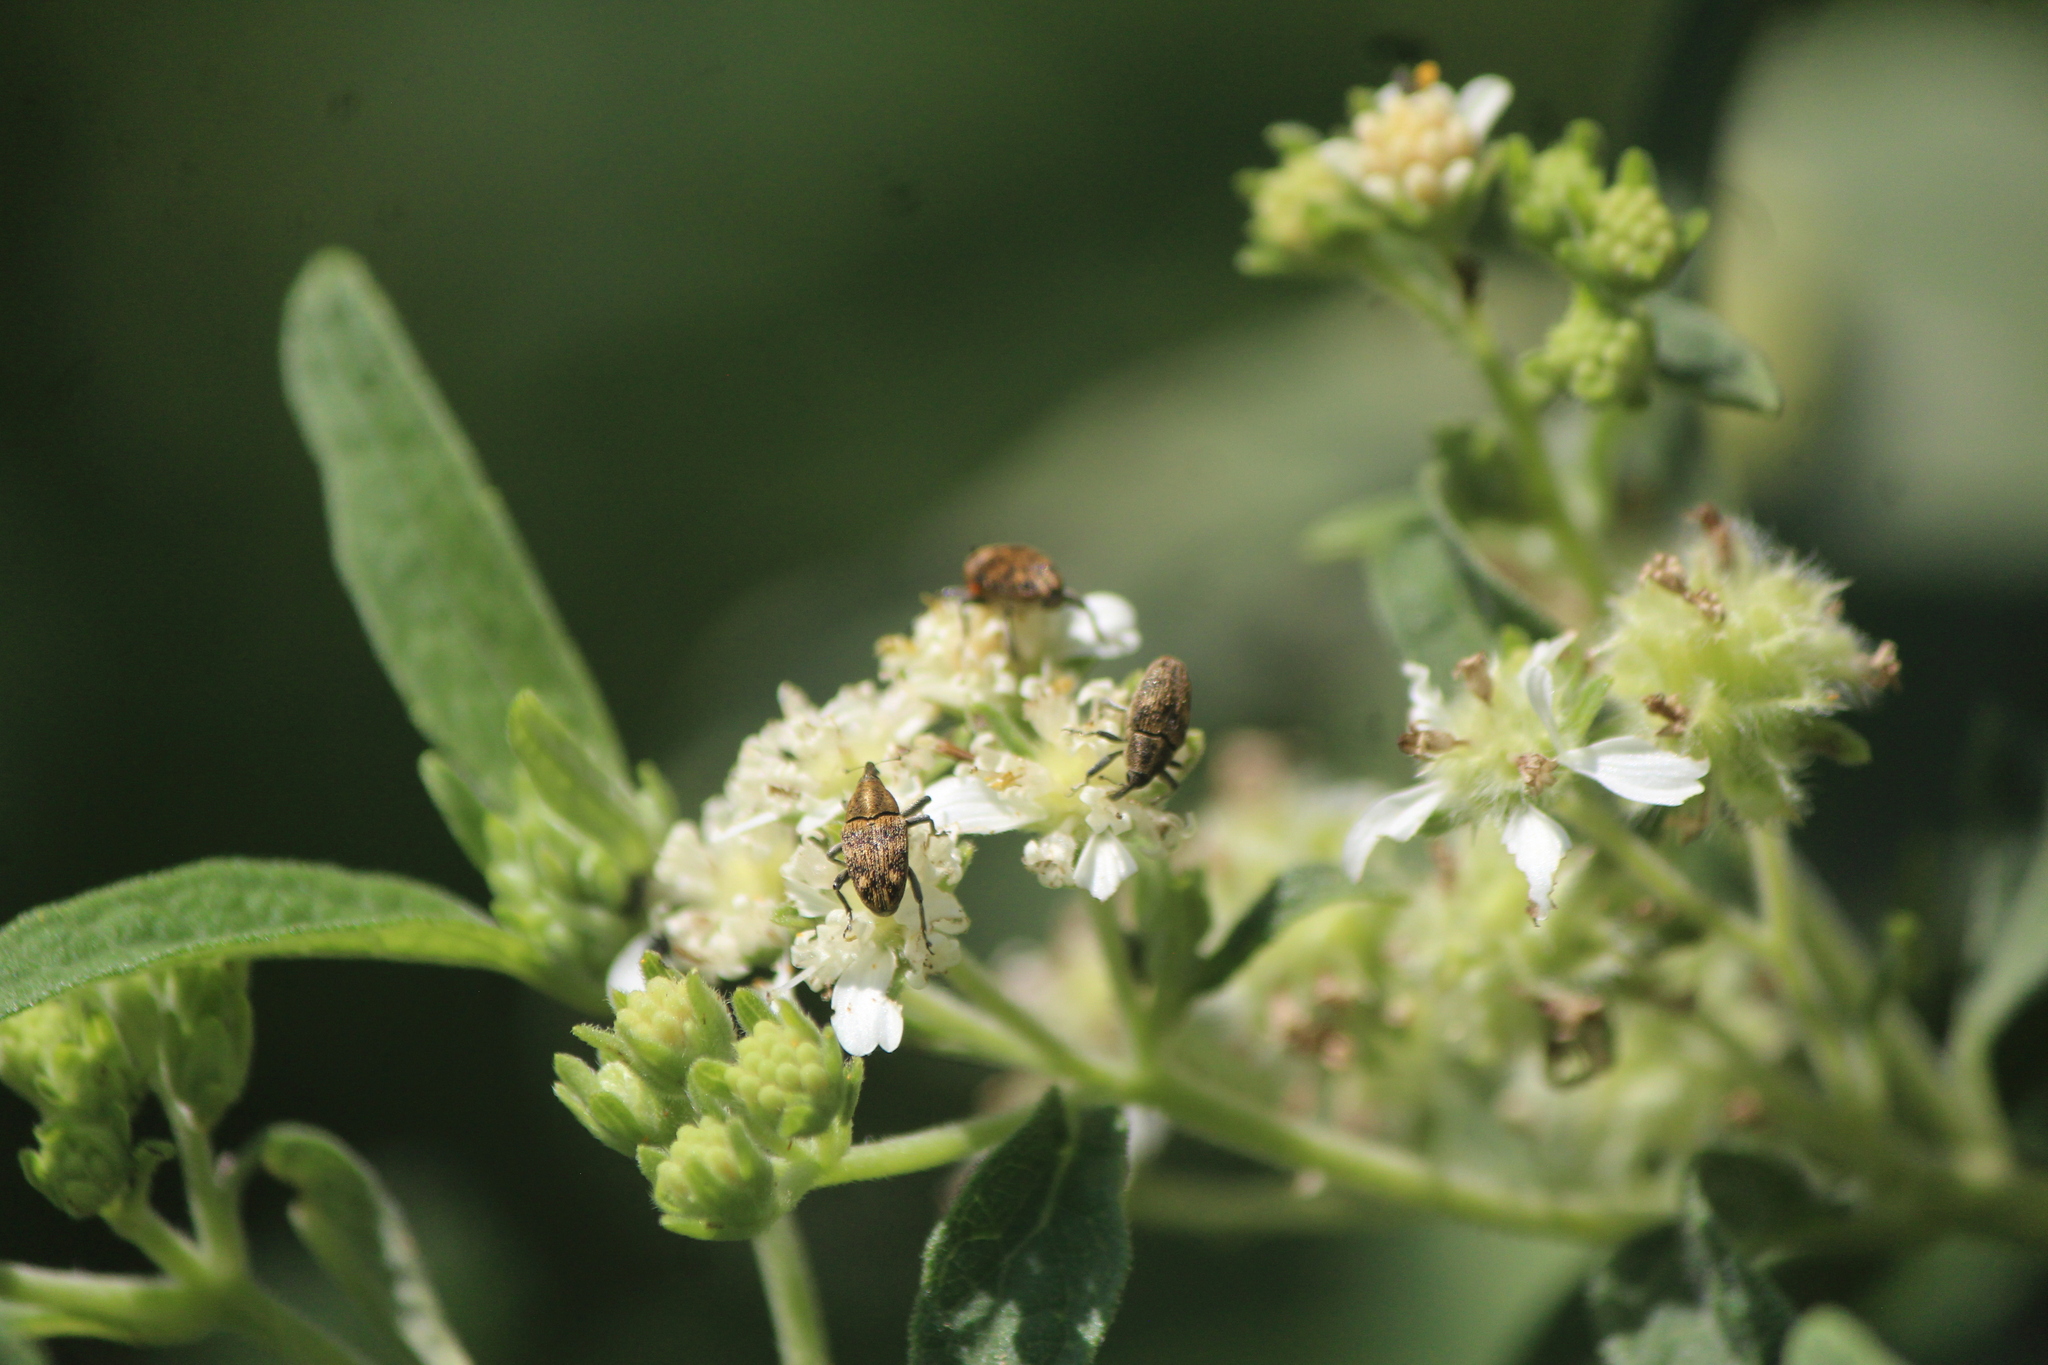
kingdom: Animalia
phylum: Arthropoda
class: Insecta
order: Coleoptera
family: Curculionidae
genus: Pseudocentrinus
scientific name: Pseudocentrinus ochraceus
